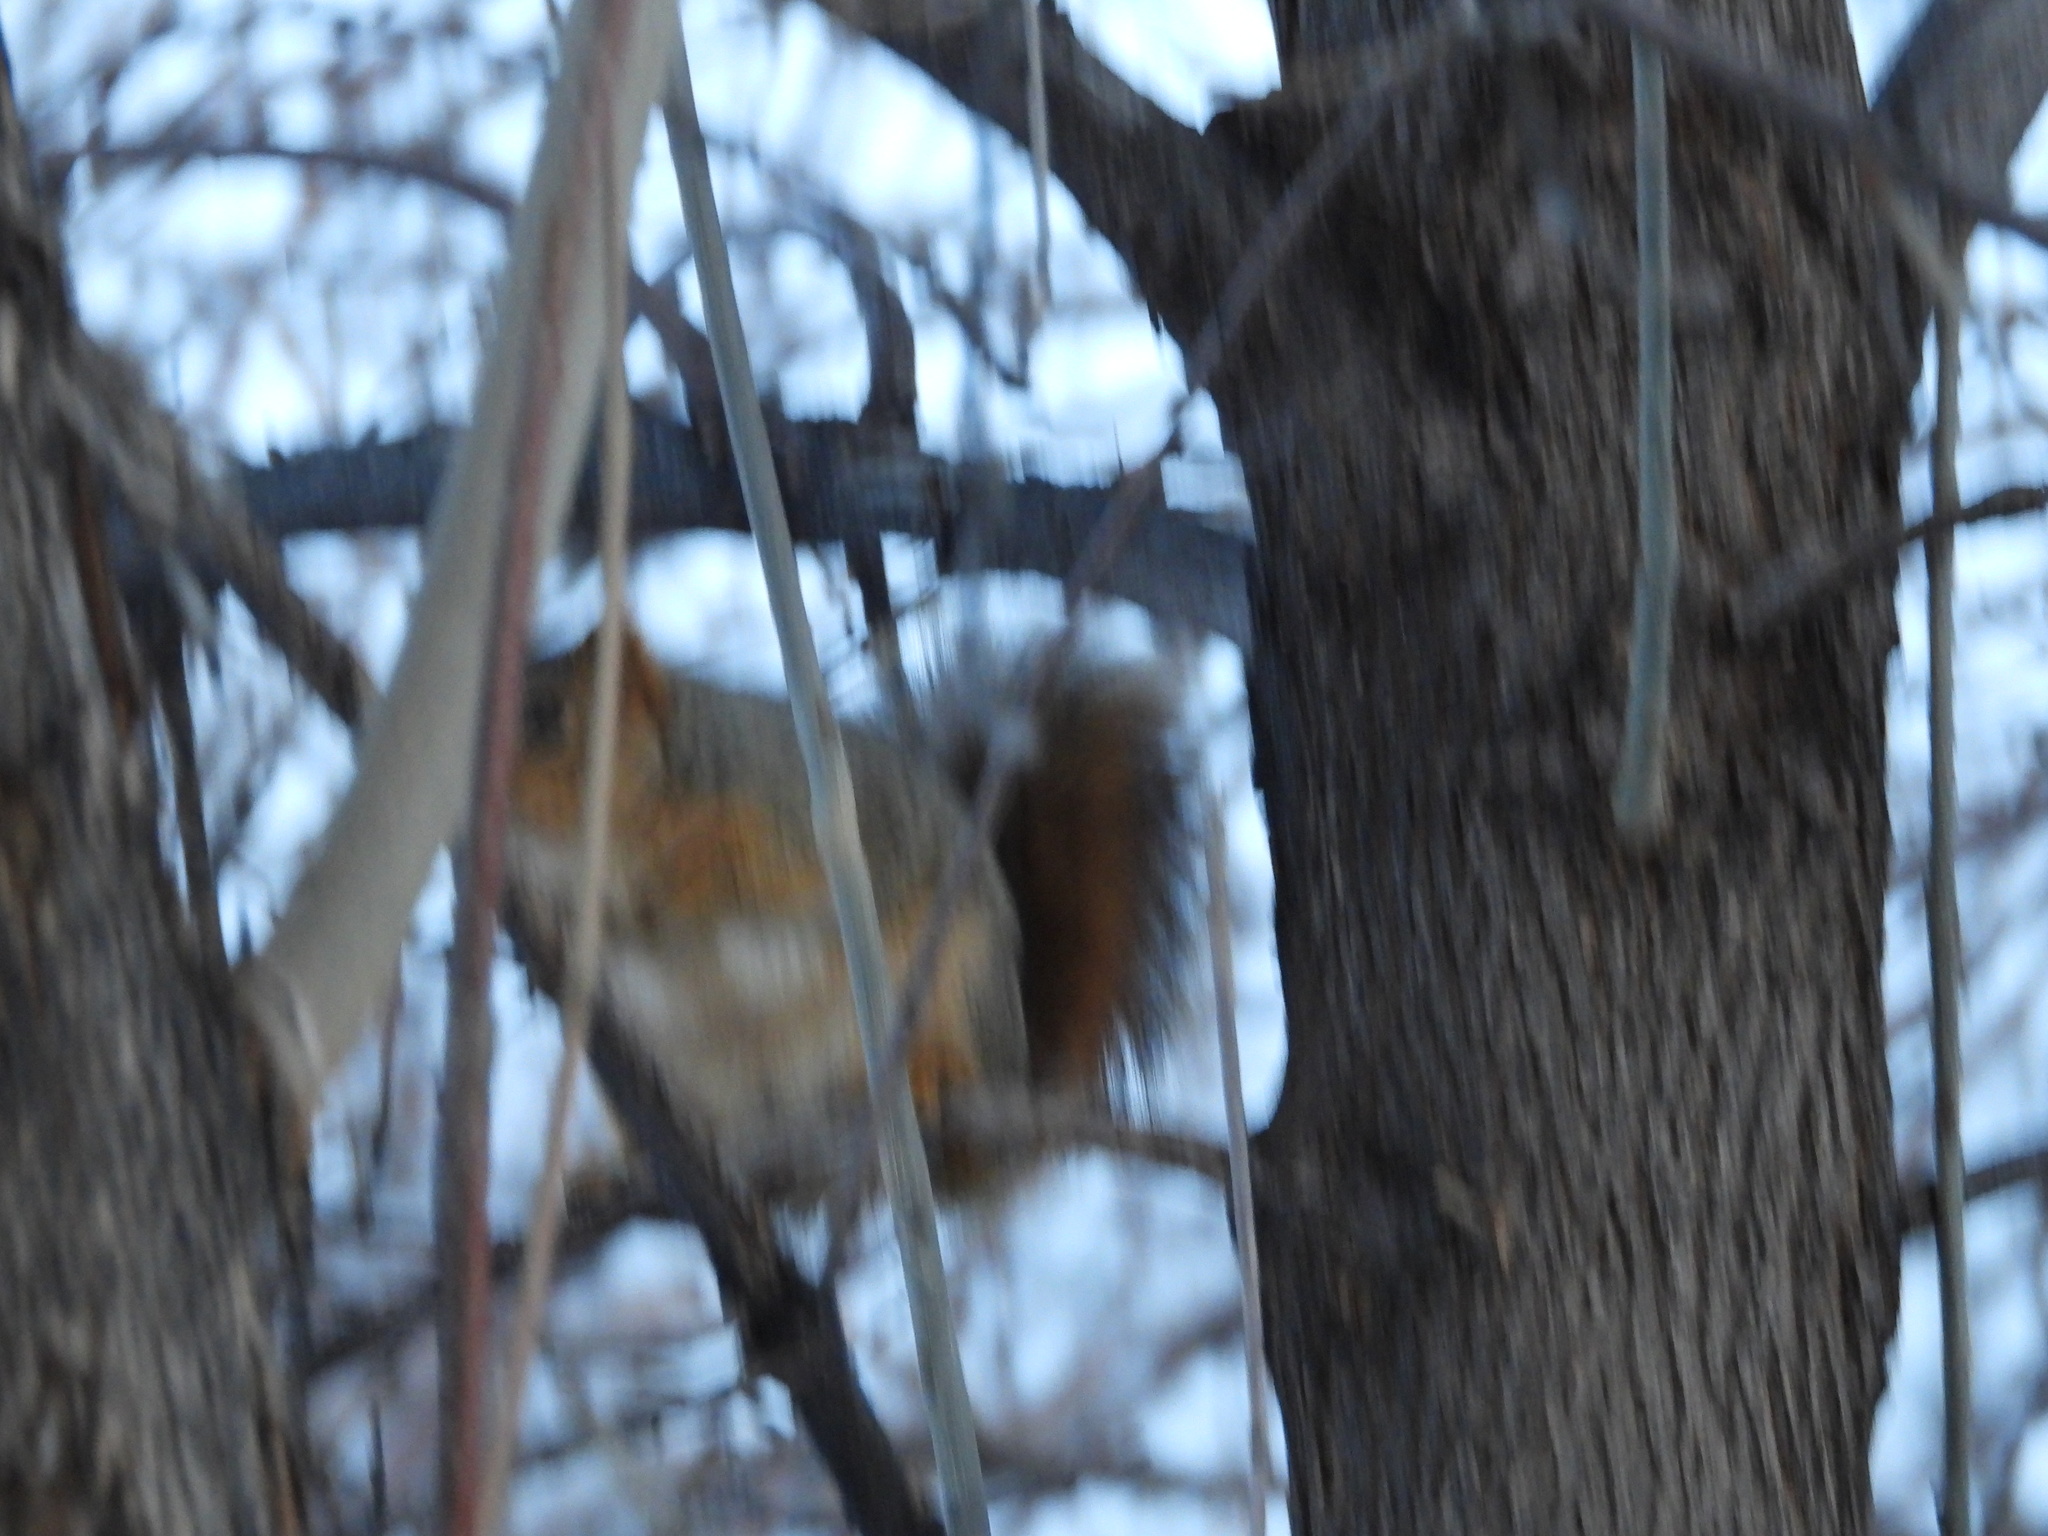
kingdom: Animalia
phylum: Chordata
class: Mammalia
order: Rodentia
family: Sciuridae
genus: Sciurus
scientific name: Sciurus niger
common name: Fox squirrel
